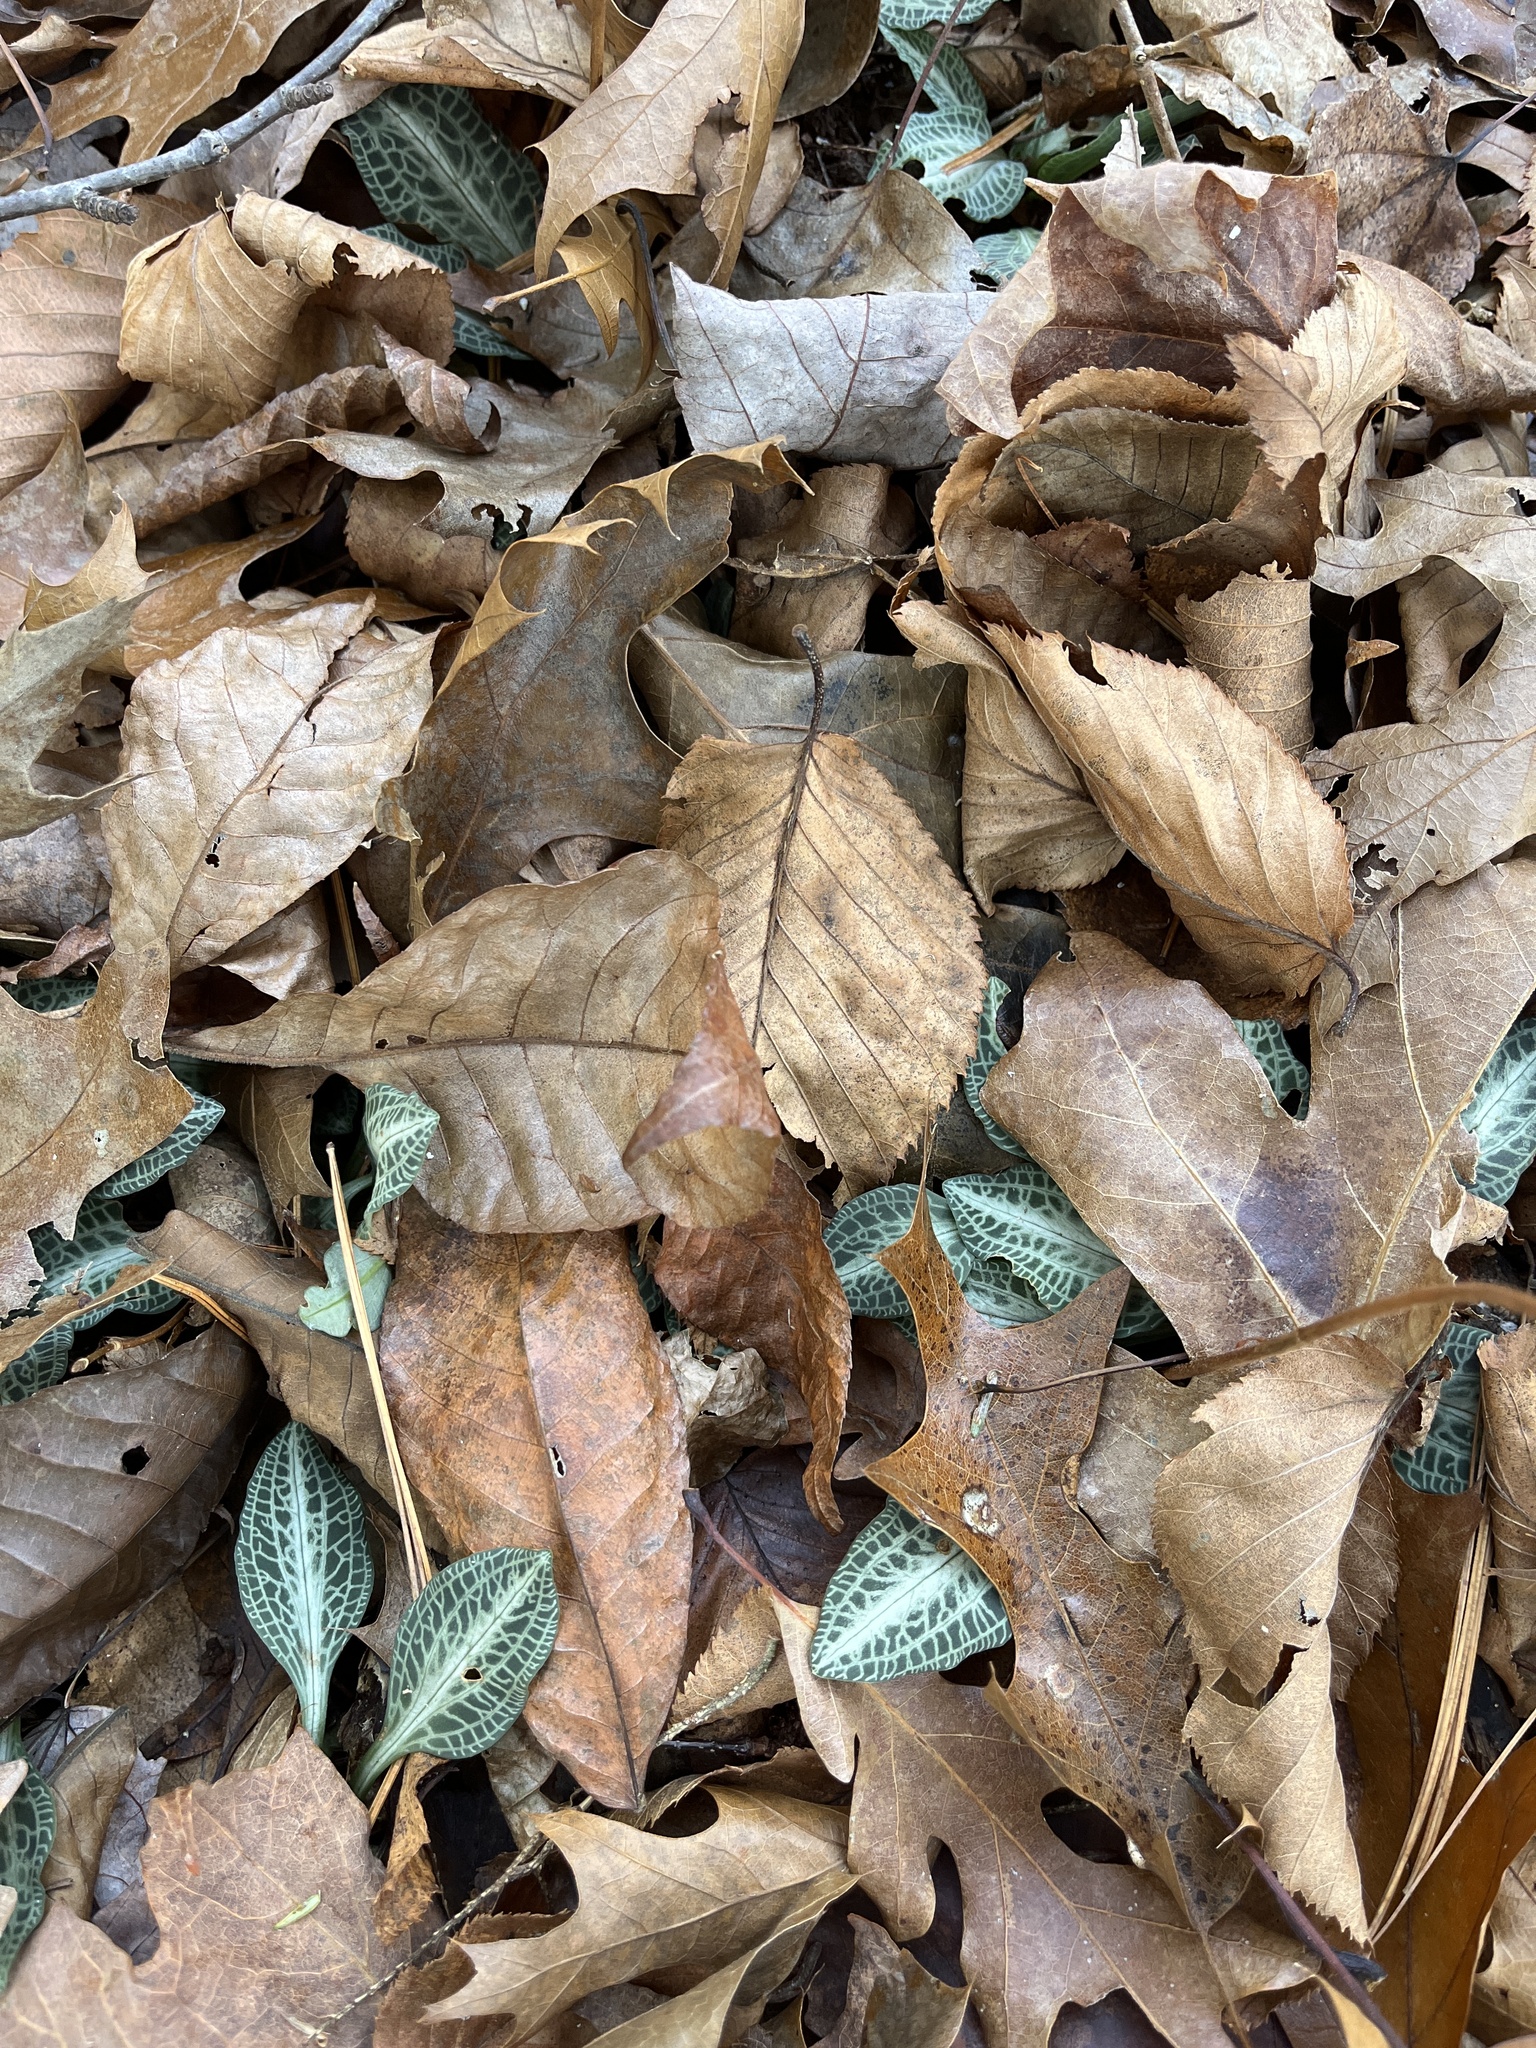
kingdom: Plantae
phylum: Tracheophyta
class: Liliopsida
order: Asparagales
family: Orchidaceae
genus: Goodyera
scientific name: Goodyera pubescens
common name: Downy rattlesnake-plantain
